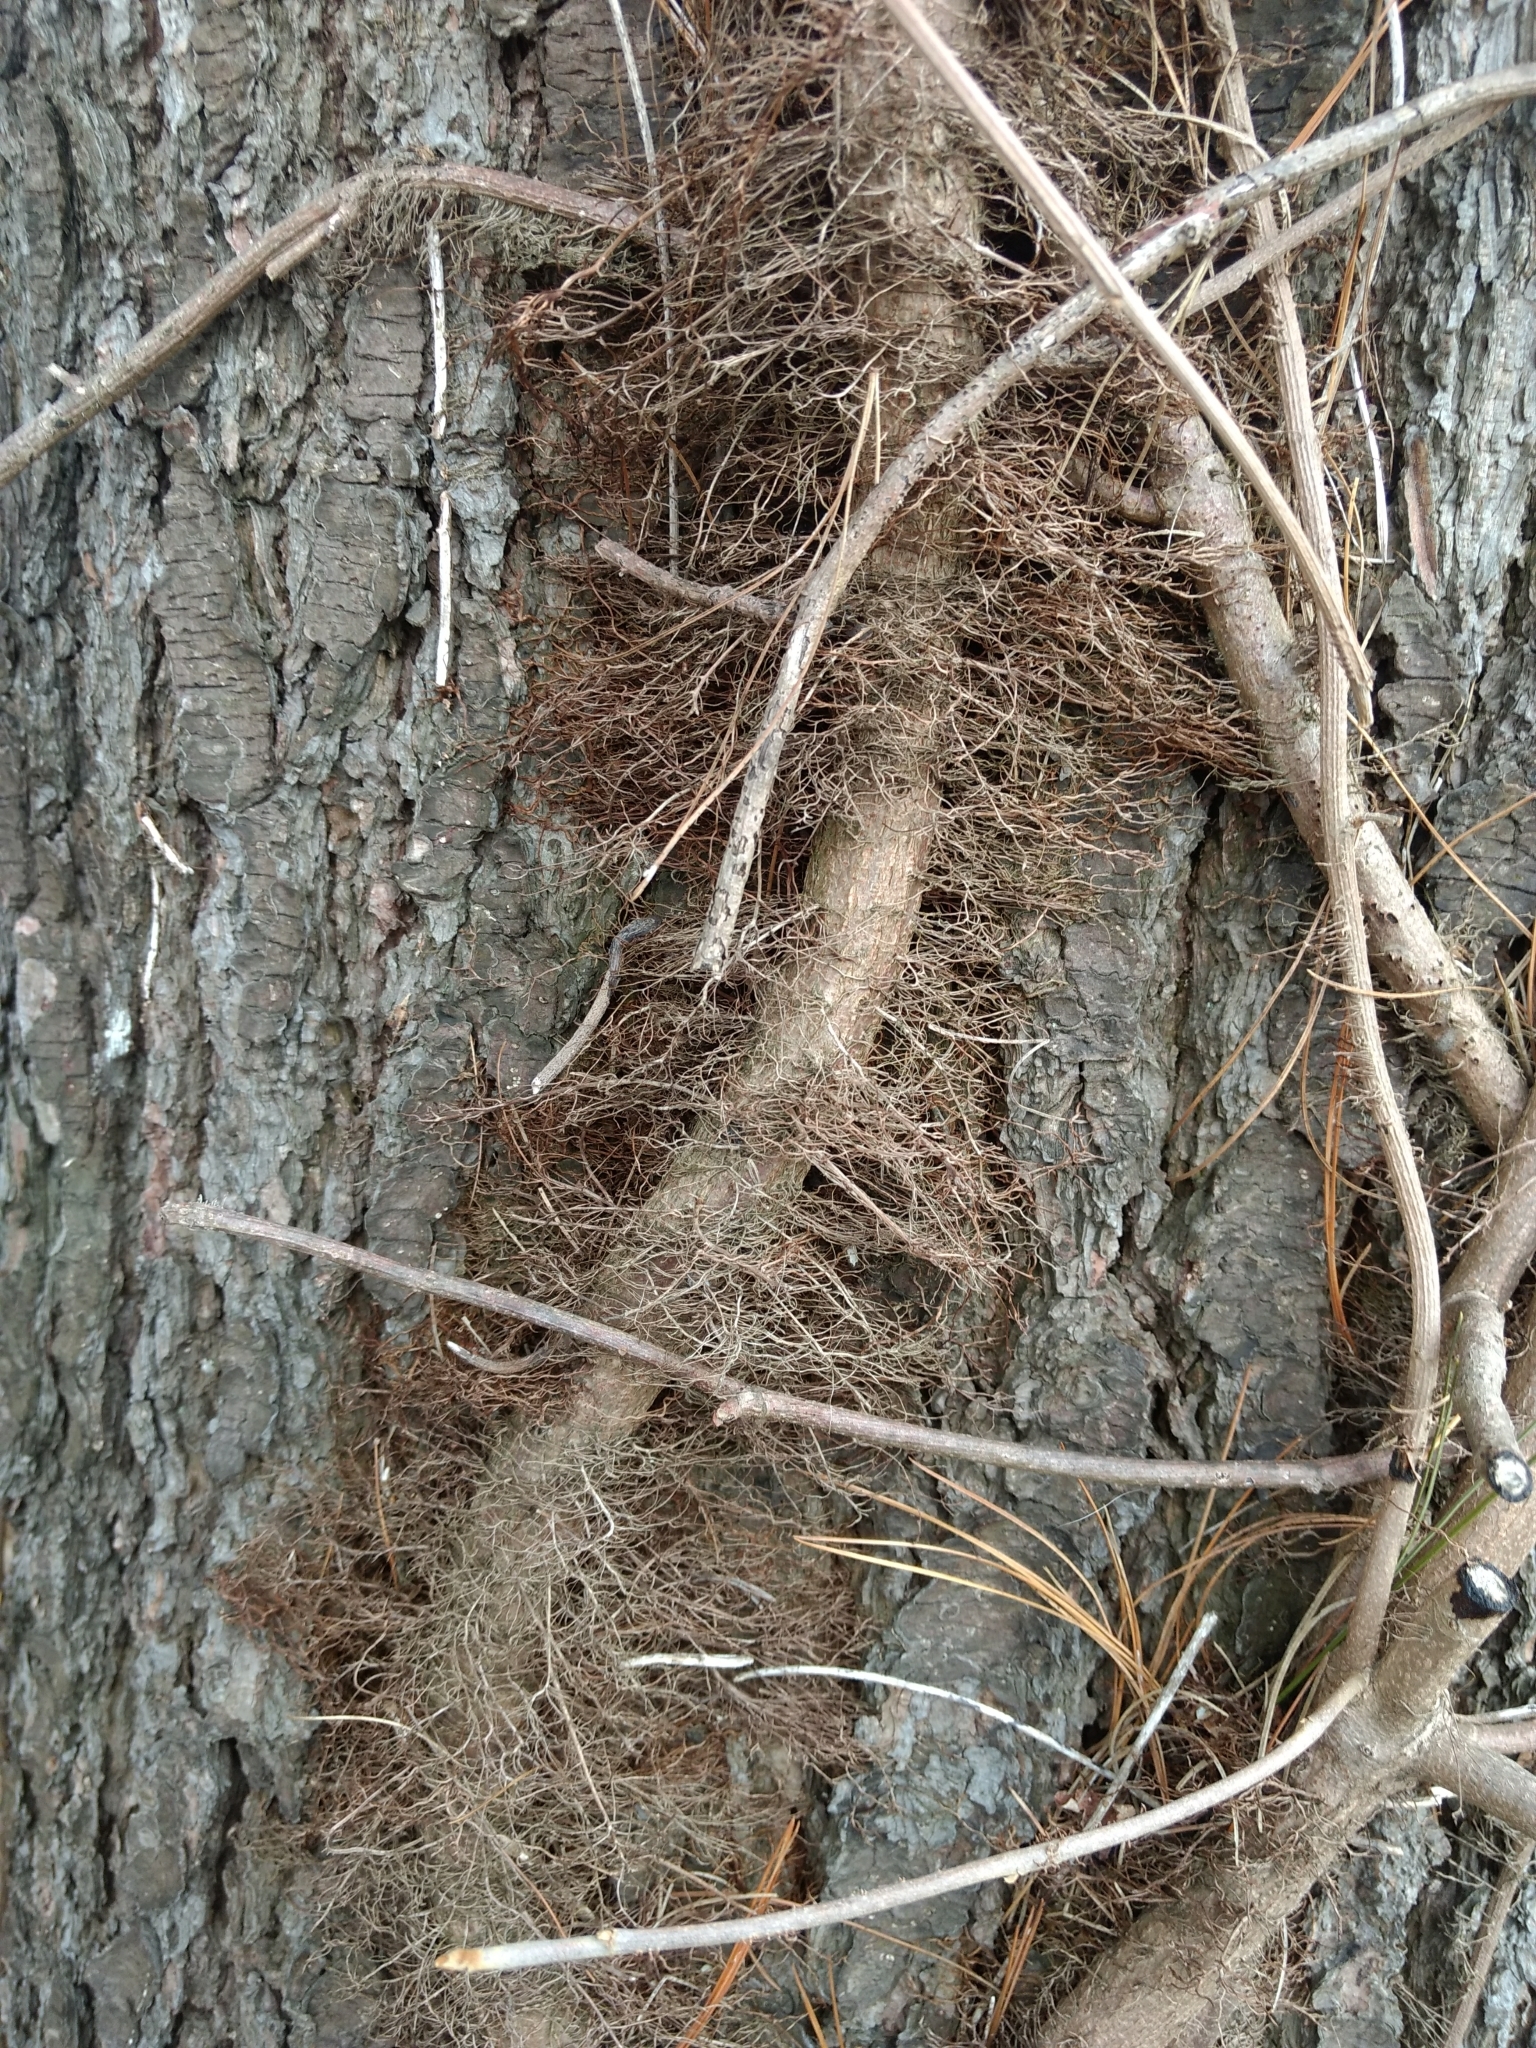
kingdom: Plantae
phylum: Tracheophyta
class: Magnoliopsida
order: Sapindales
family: Anacardiaceae
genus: Toxicodendron
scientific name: Toxicodendron radicans
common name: Poison ivy
